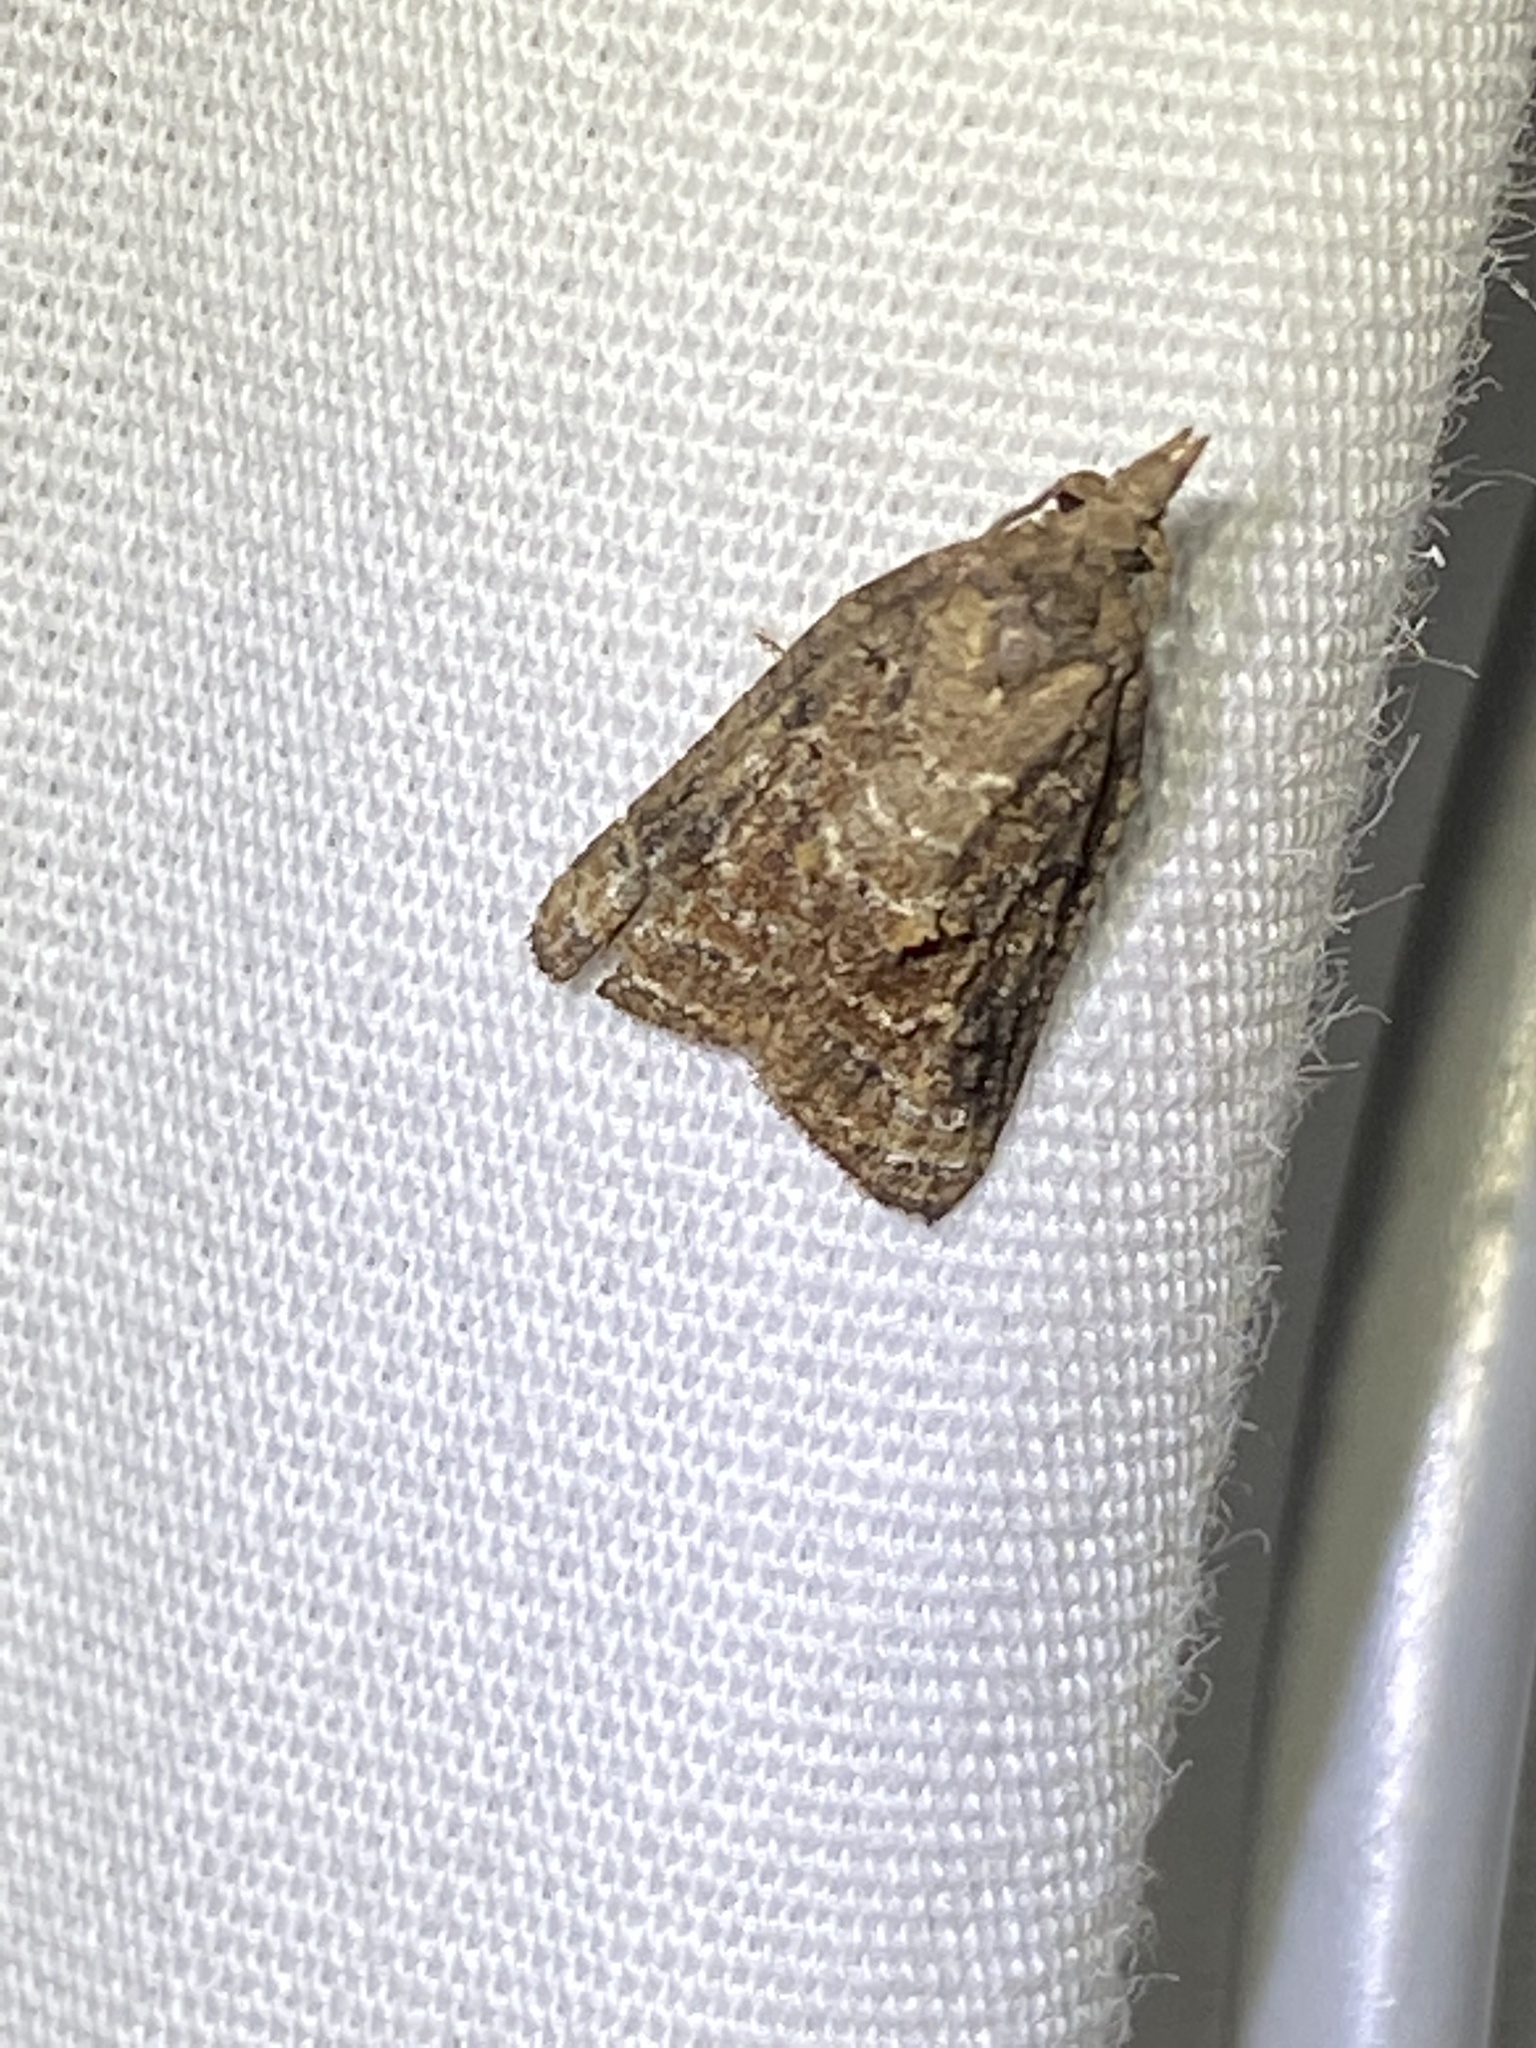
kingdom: Animalia
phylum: Arthropoda
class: Insecta
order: Lepidoptera
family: Tortricidae
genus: Platynota
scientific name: Platynota idaeusalis
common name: Tufted apple bud moth
